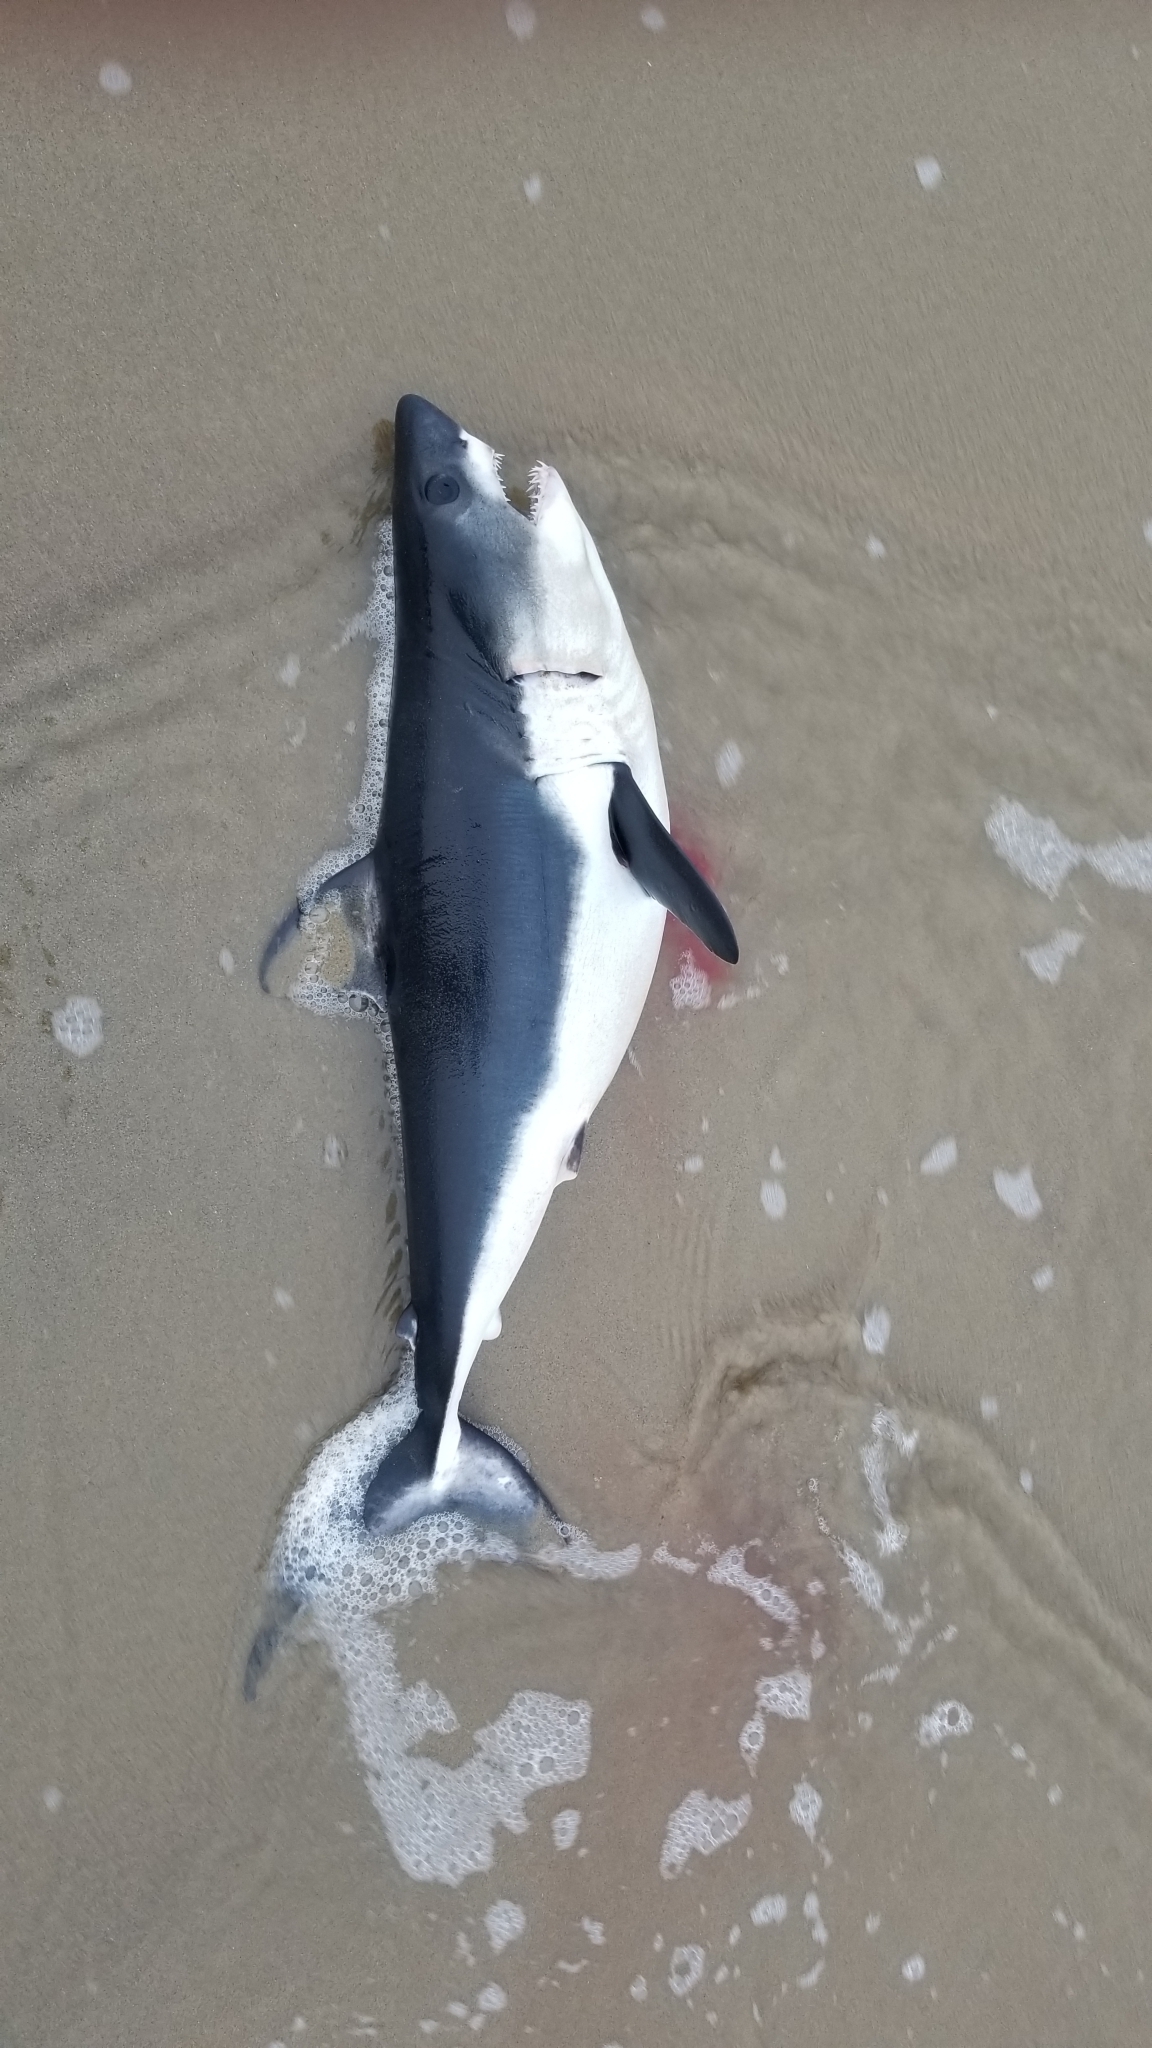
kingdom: Animalia
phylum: Chordata
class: Elasmobranchii
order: Lamniformes
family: Lamnidae
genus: Lamna
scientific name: Lamna ditropis
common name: Salmon shark
